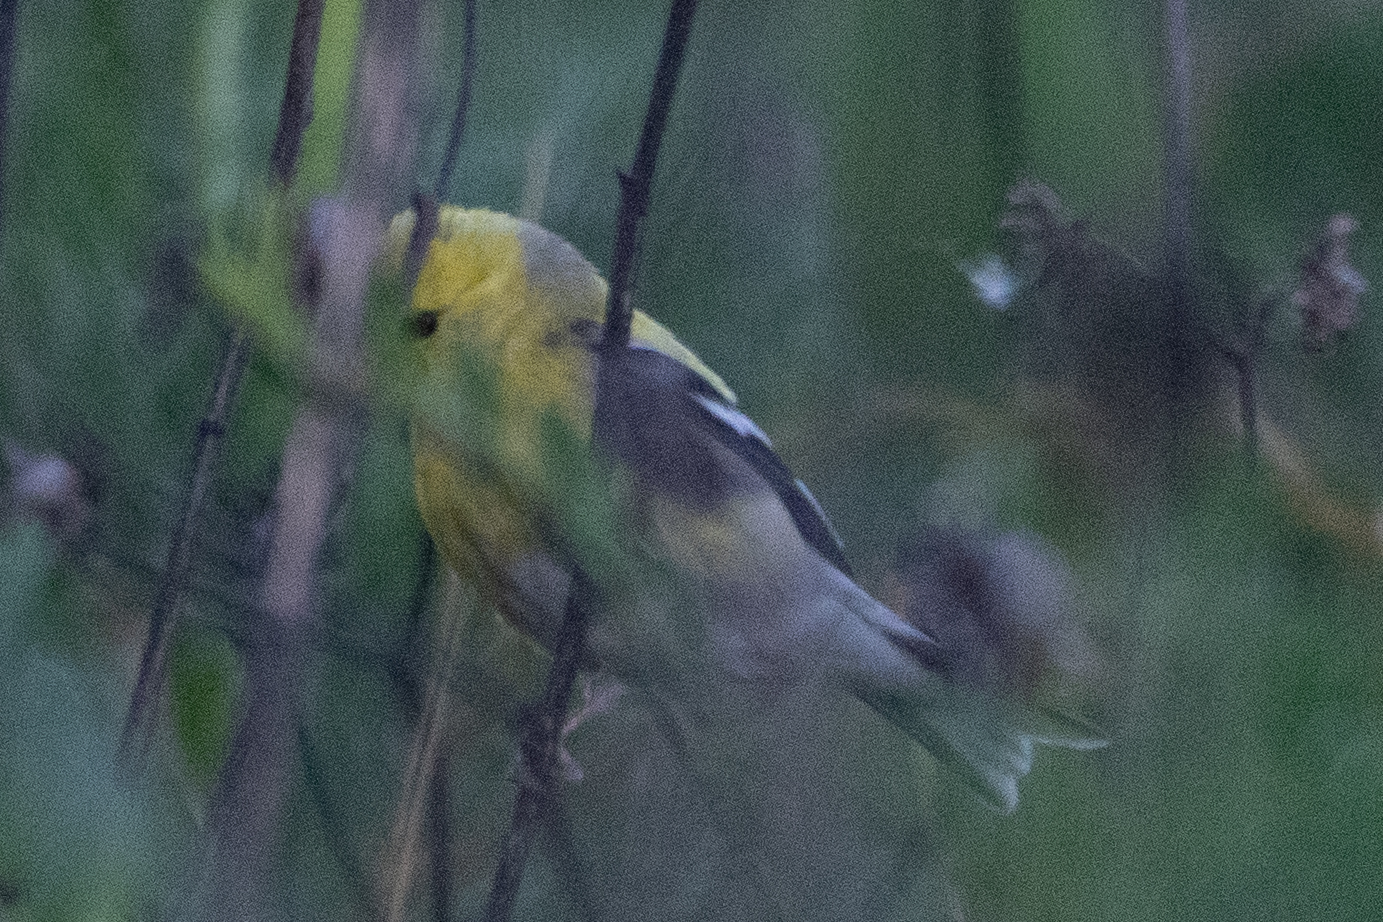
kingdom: Animalia
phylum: Chordata
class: Aves
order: Passeriformes
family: Fringillidae
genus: Spinus
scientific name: Spinus tristis
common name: American goldfinch
